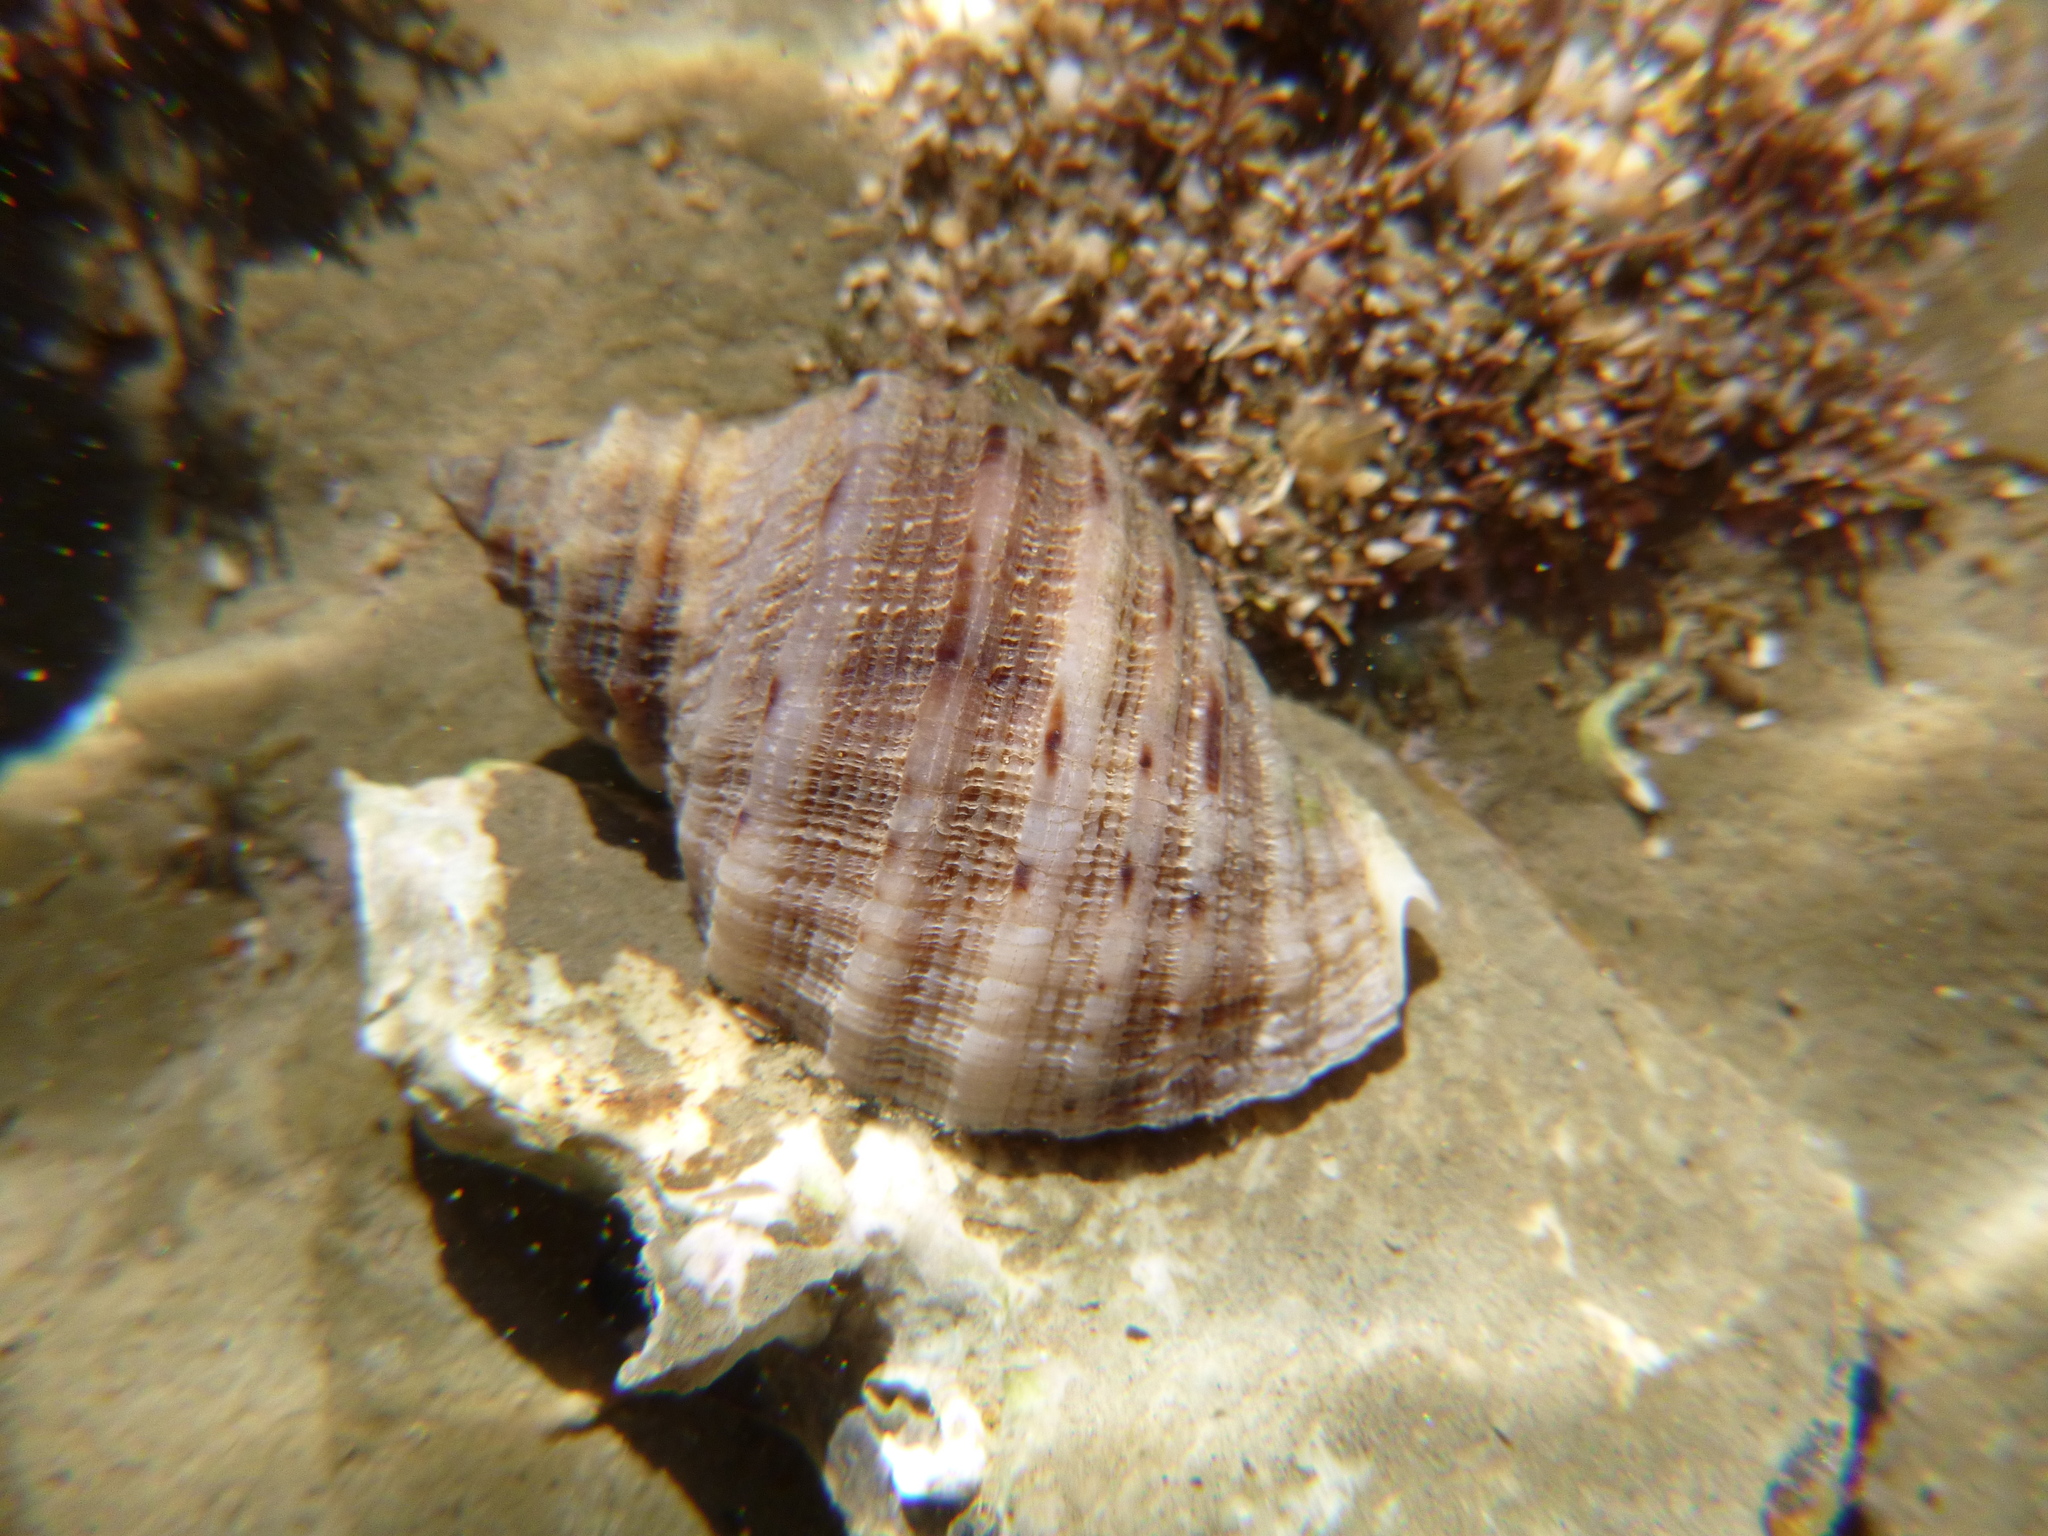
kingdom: Animalia
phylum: Mollusca
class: Gastropoda
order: Neogastropoda
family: Muricidae
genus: Dicathais
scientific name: Dicathais orbita
